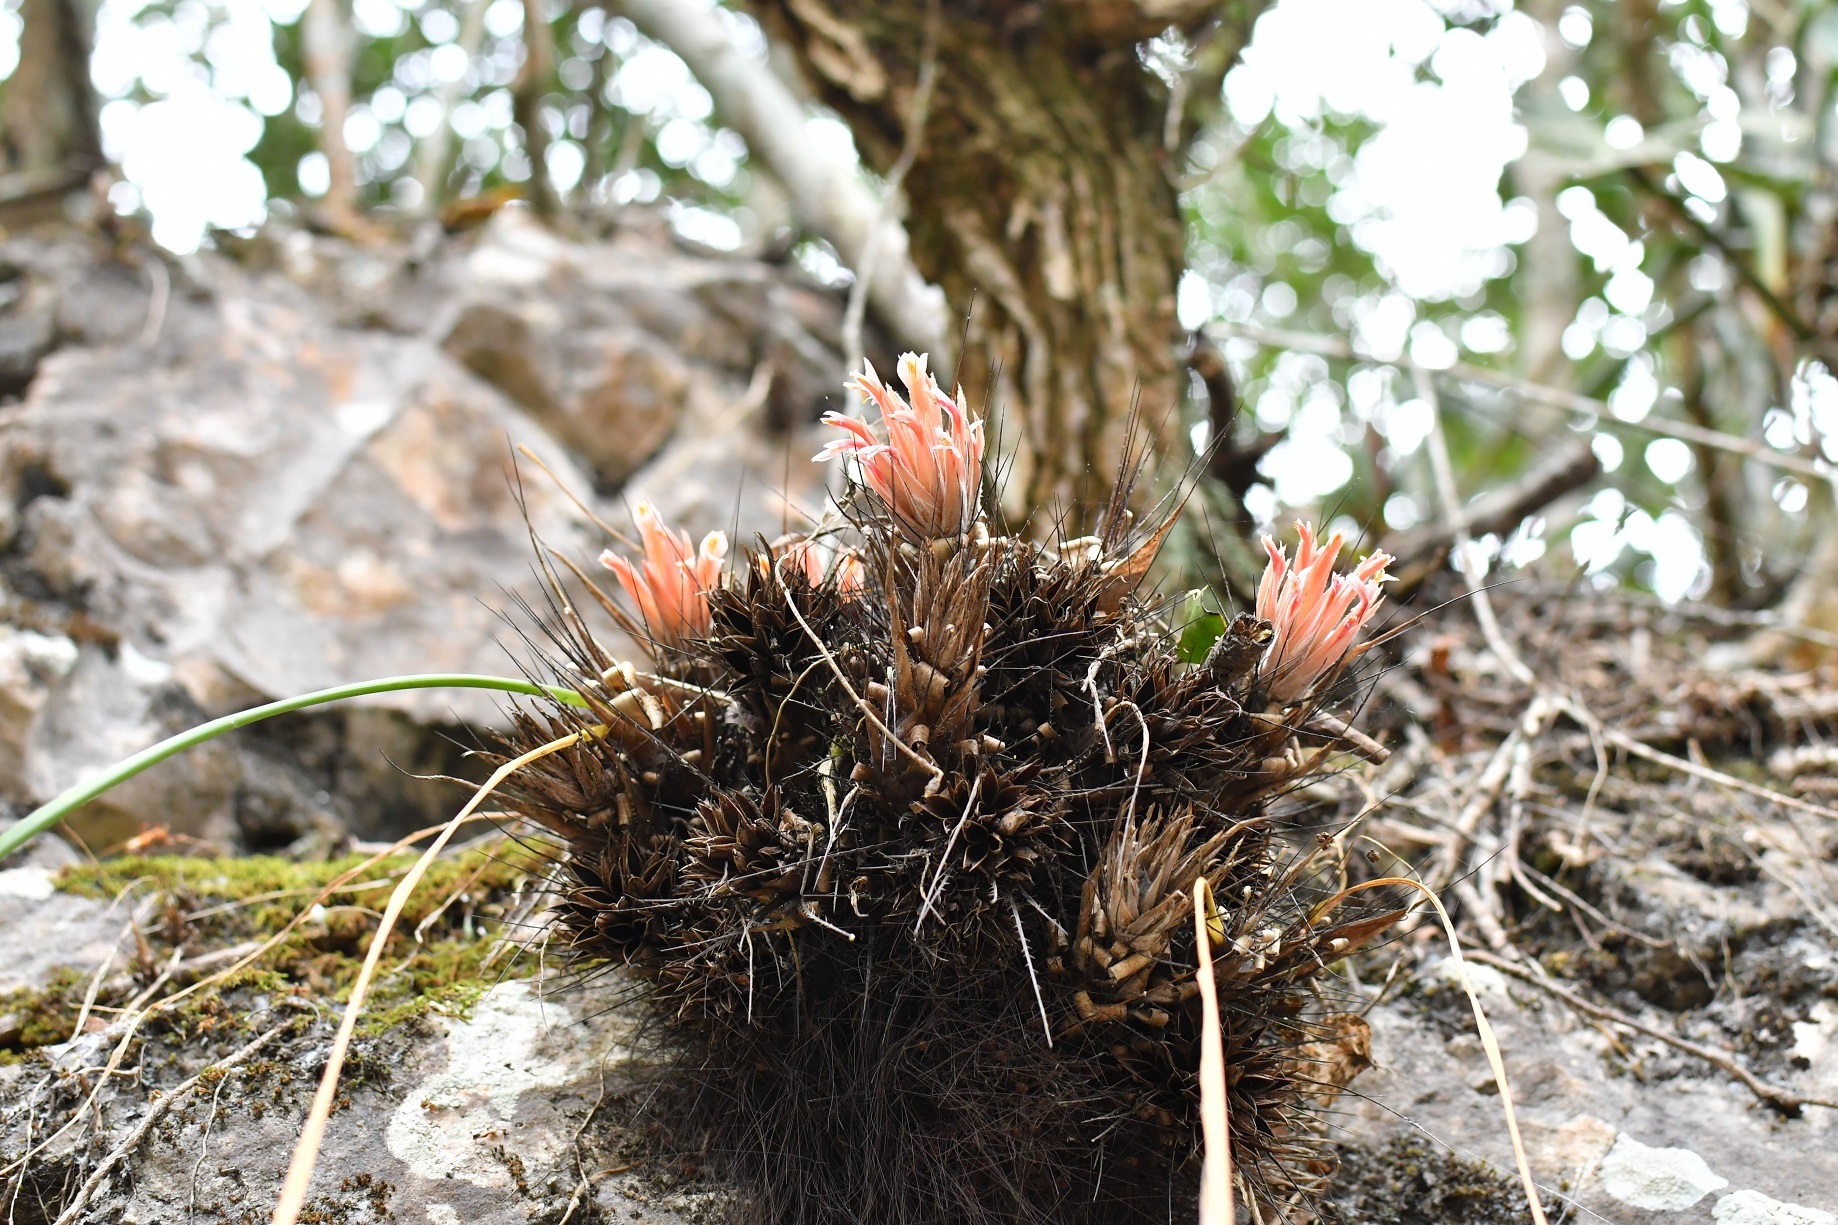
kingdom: Plantae
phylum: Tracheophyta
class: Liliopsida
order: Poales
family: Bromeliaceae
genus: Pitcairnia
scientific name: Pitcairnia heterophylla
